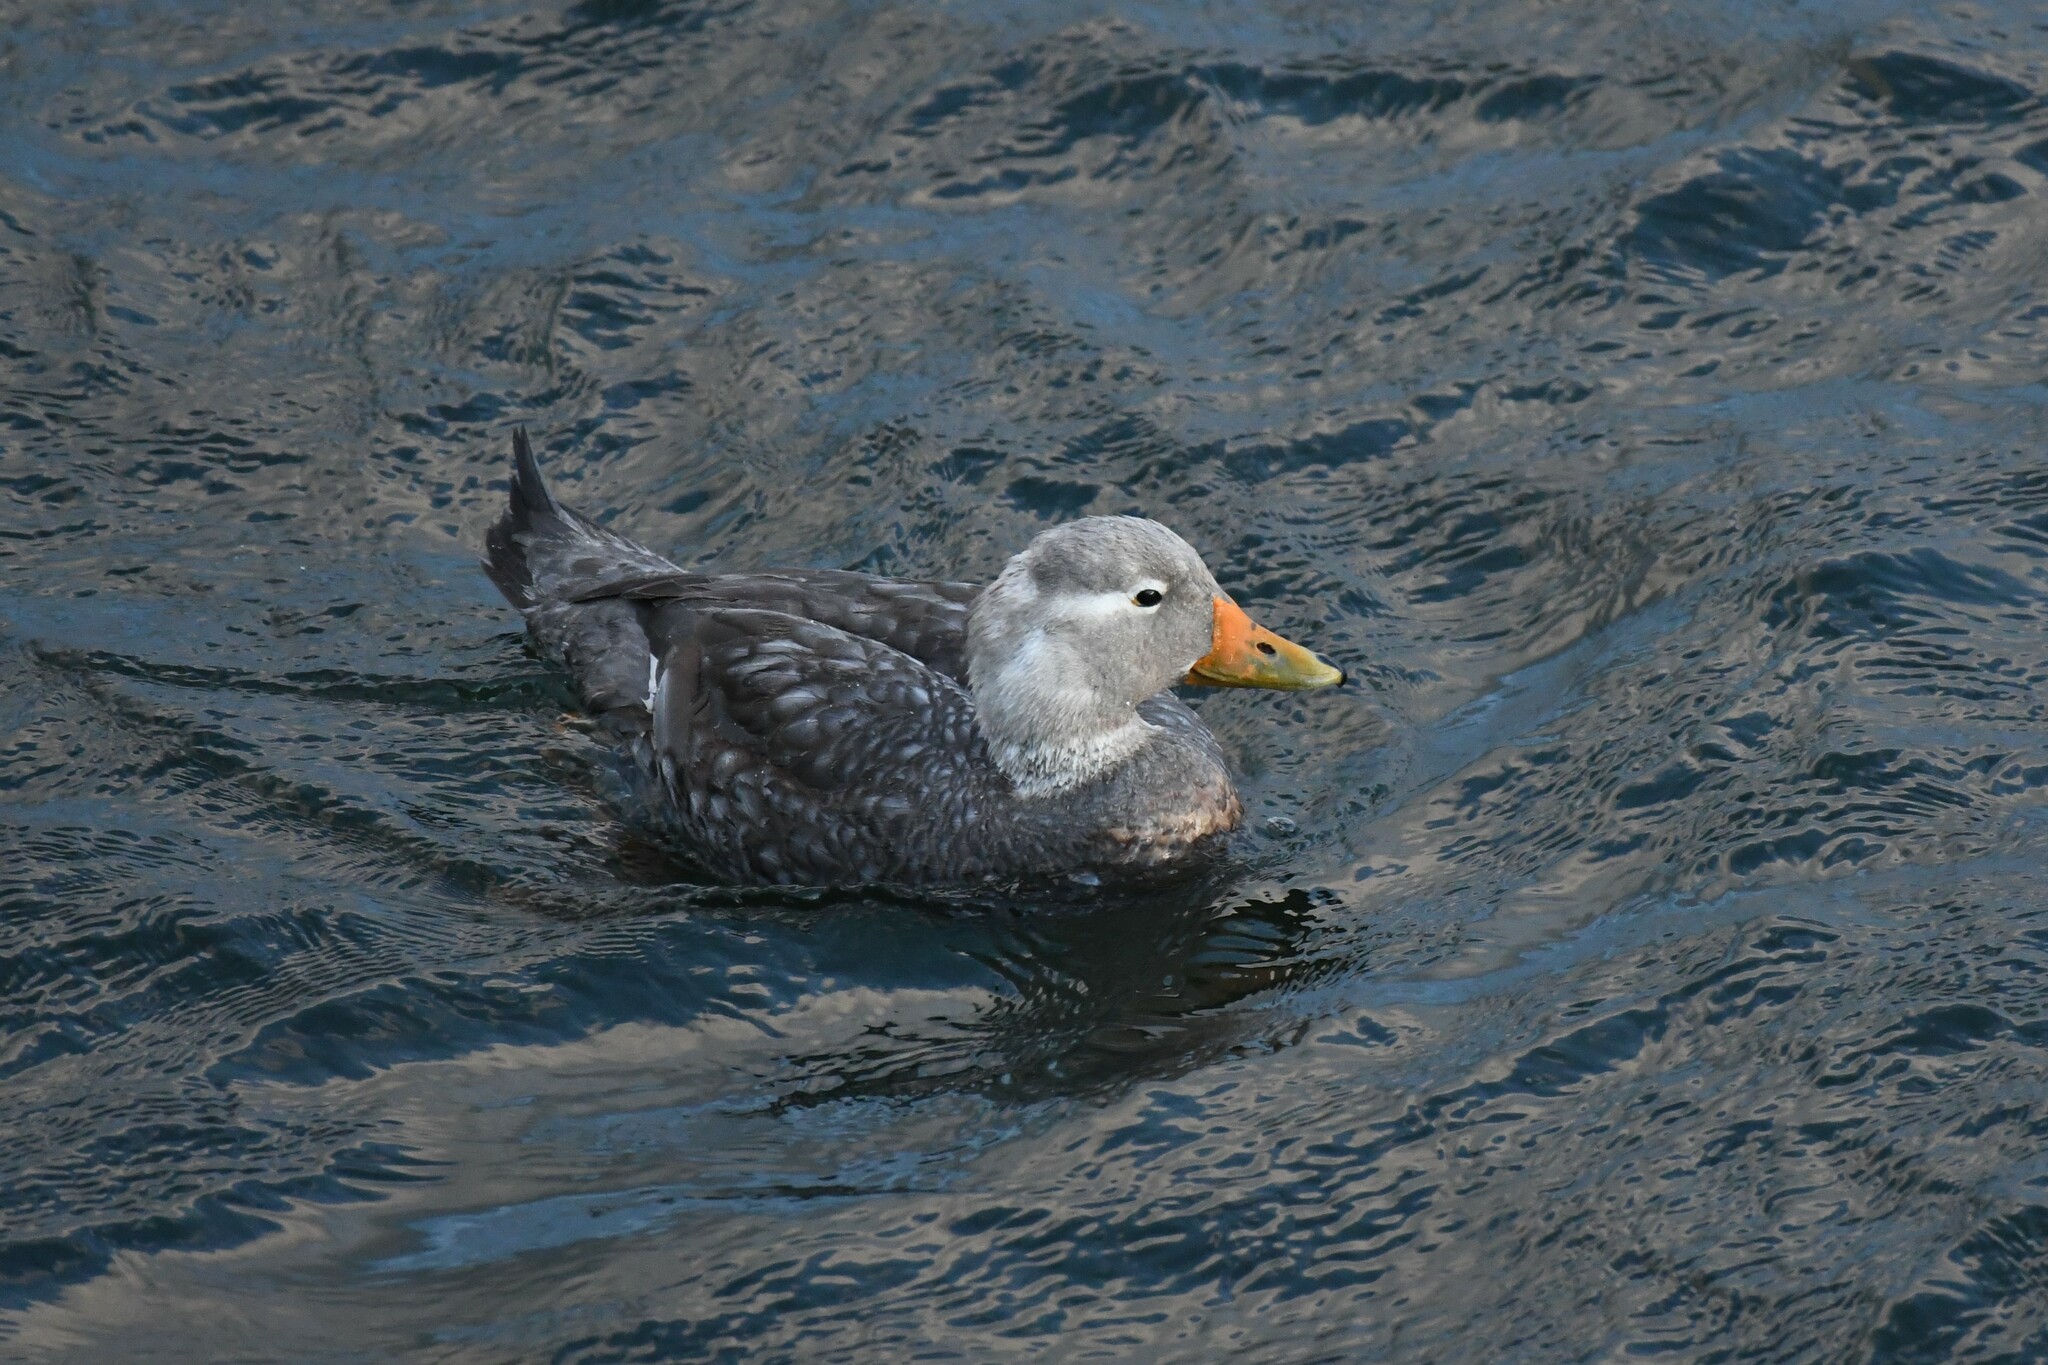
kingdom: Animalia
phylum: Chordata
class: Aves
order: Anseriformes
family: Anatidae
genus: Tachyeres
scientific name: Tachyeres patachonicus
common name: Flying steamer duck
